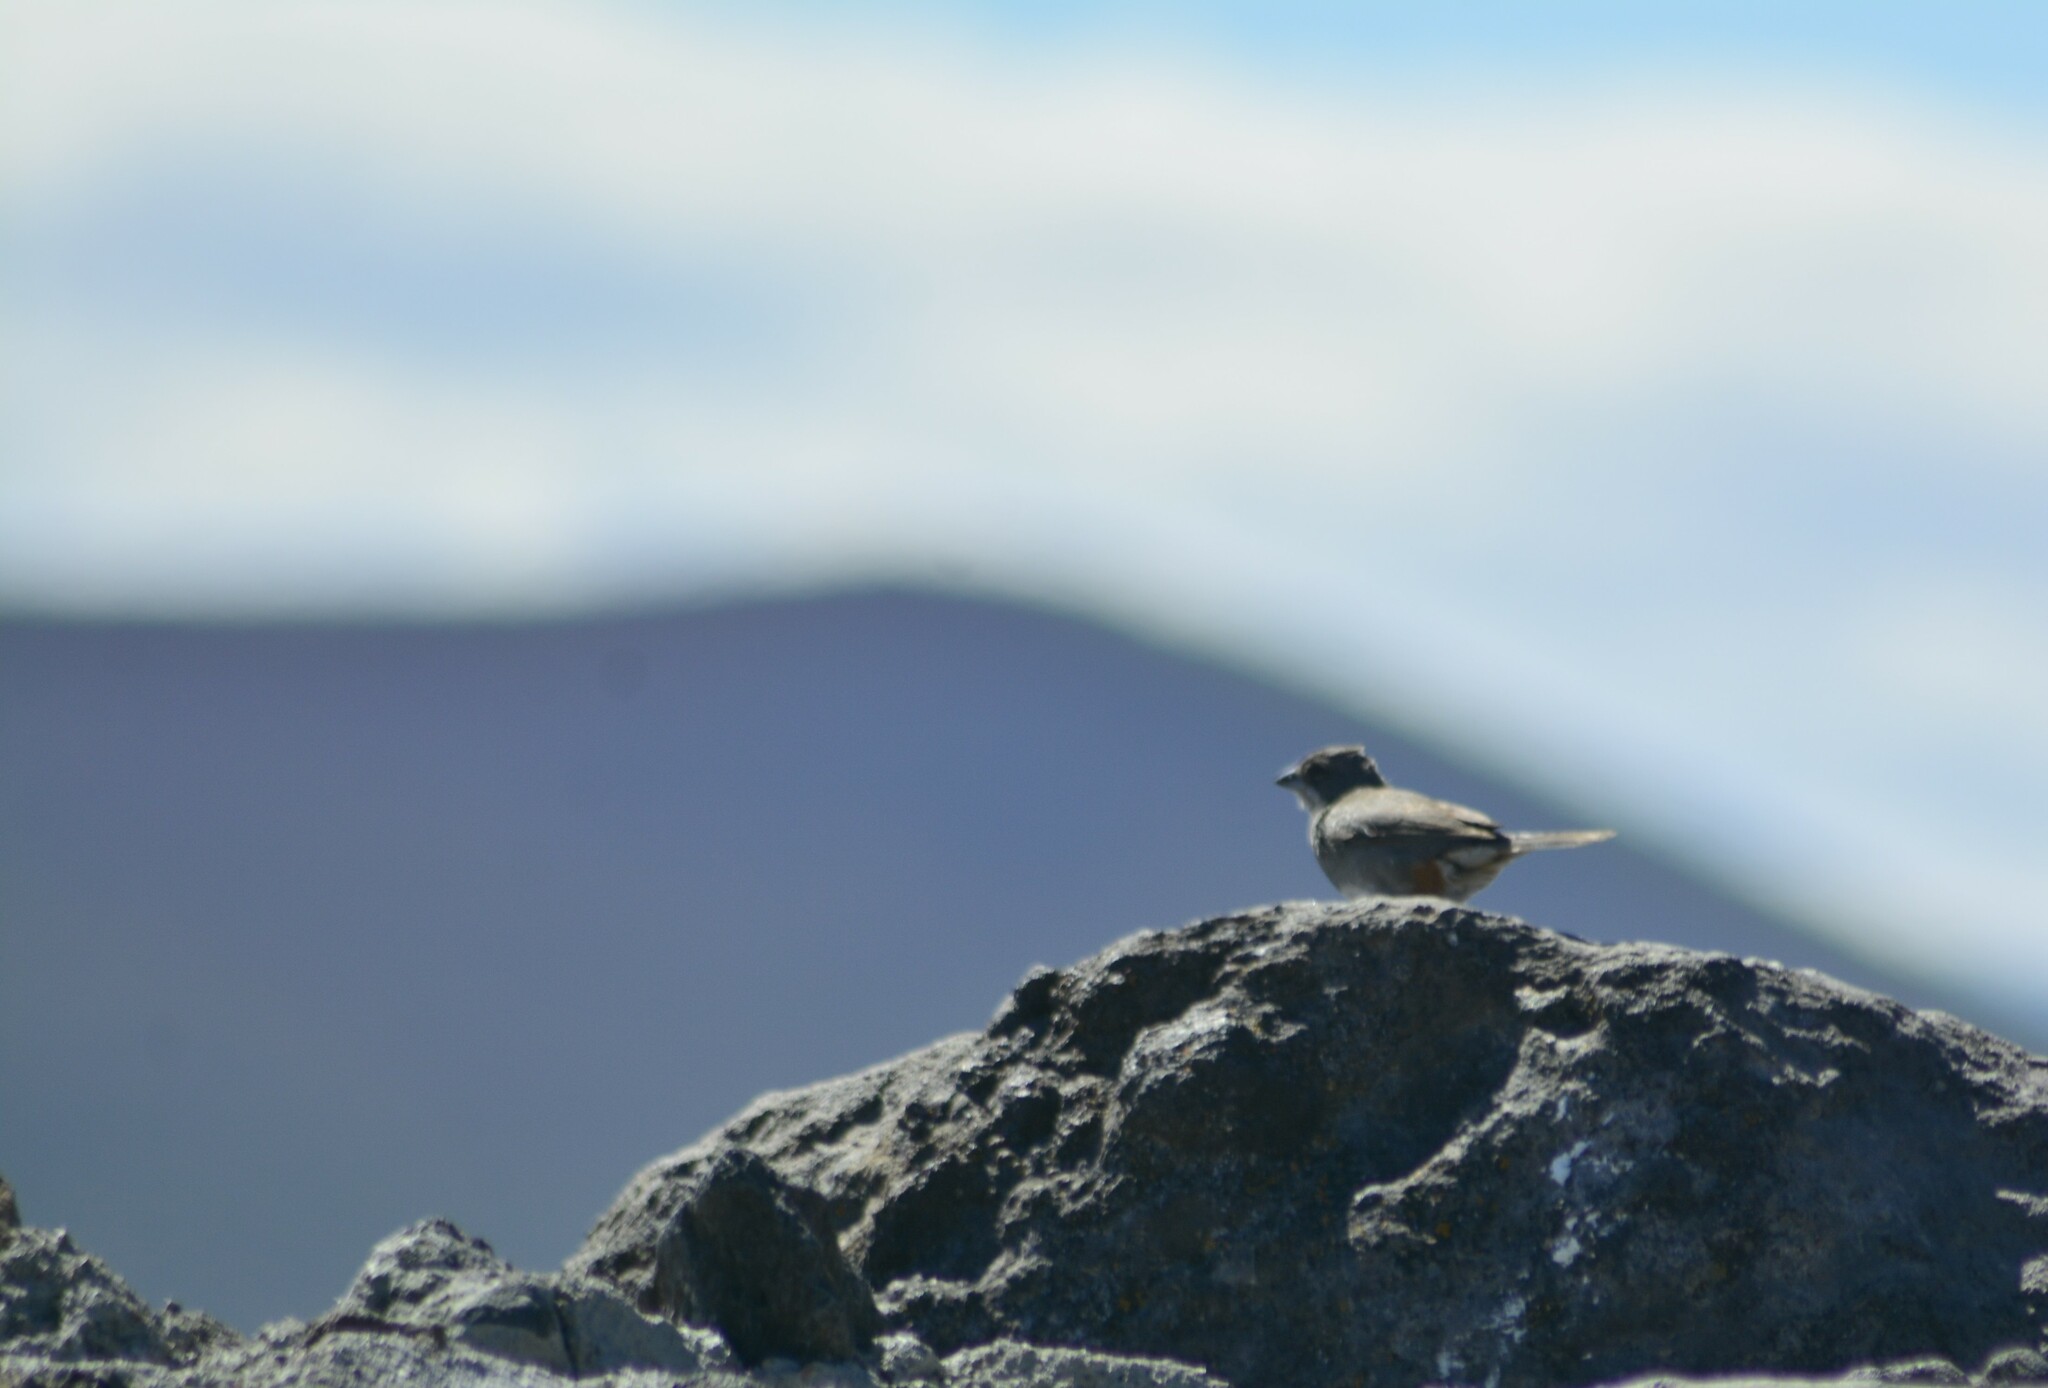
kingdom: Animalia
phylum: Chordata
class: Aves
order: Passeriformes
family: Thraupidae
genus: Diuca
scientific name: Diuca diuca
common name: Common diuca finch
